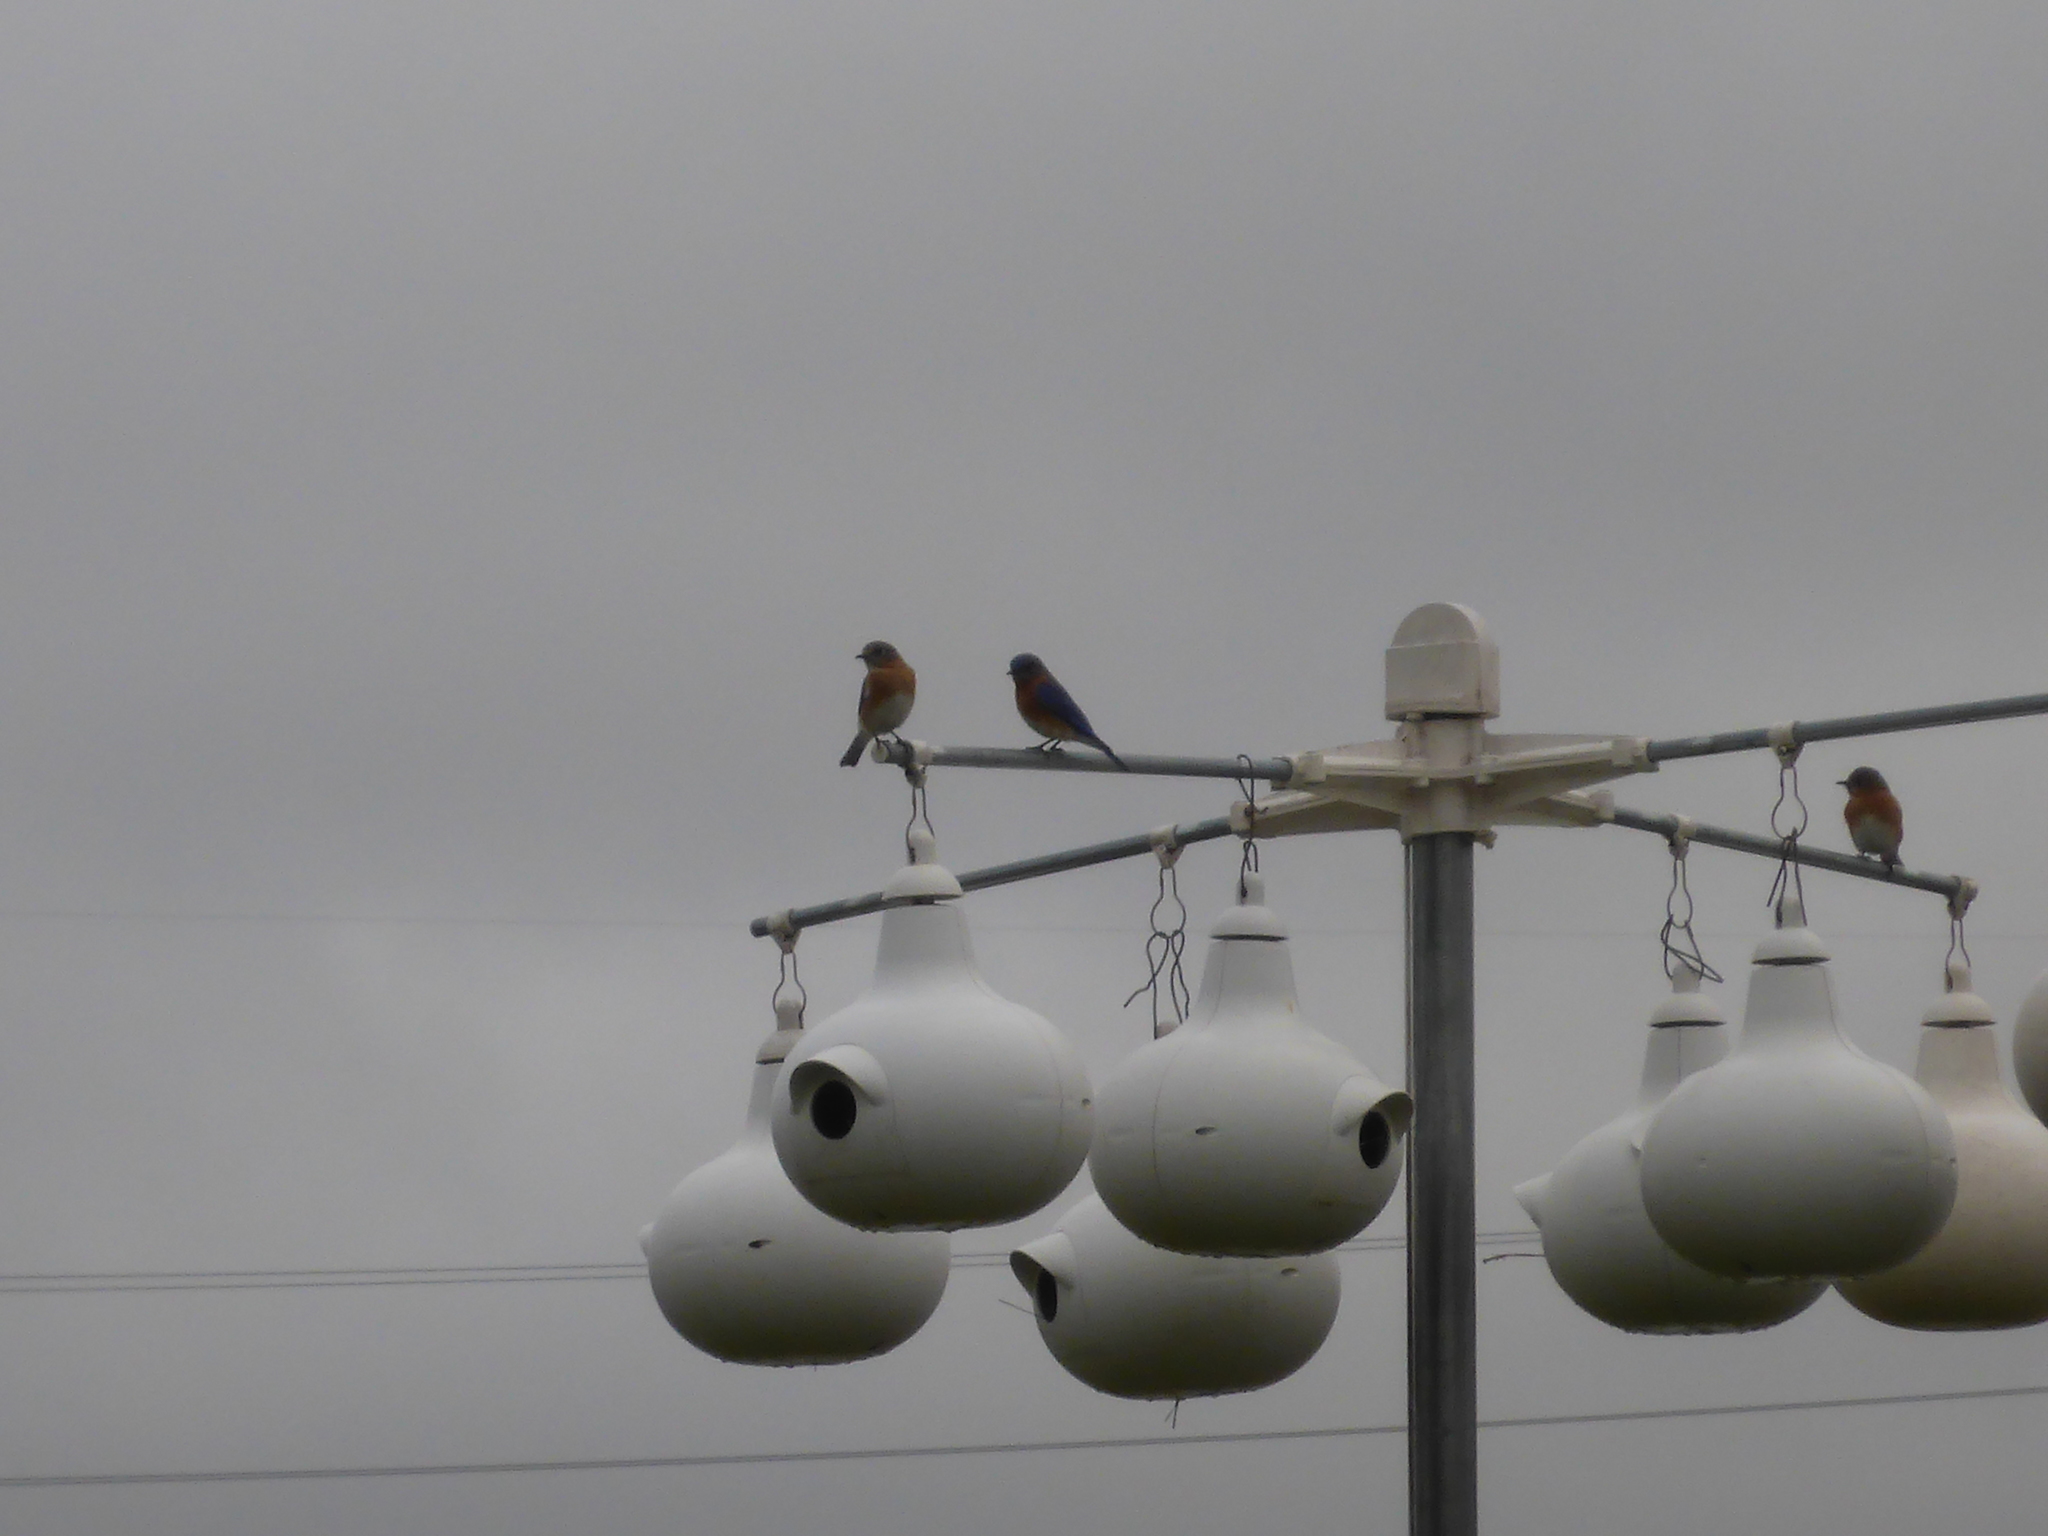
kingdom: Animalia
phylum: Chordata
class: Aves
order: Passeriformes
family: Turdidae
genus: Sialia
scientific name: Sialia sialis
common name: Eastern bluebird
